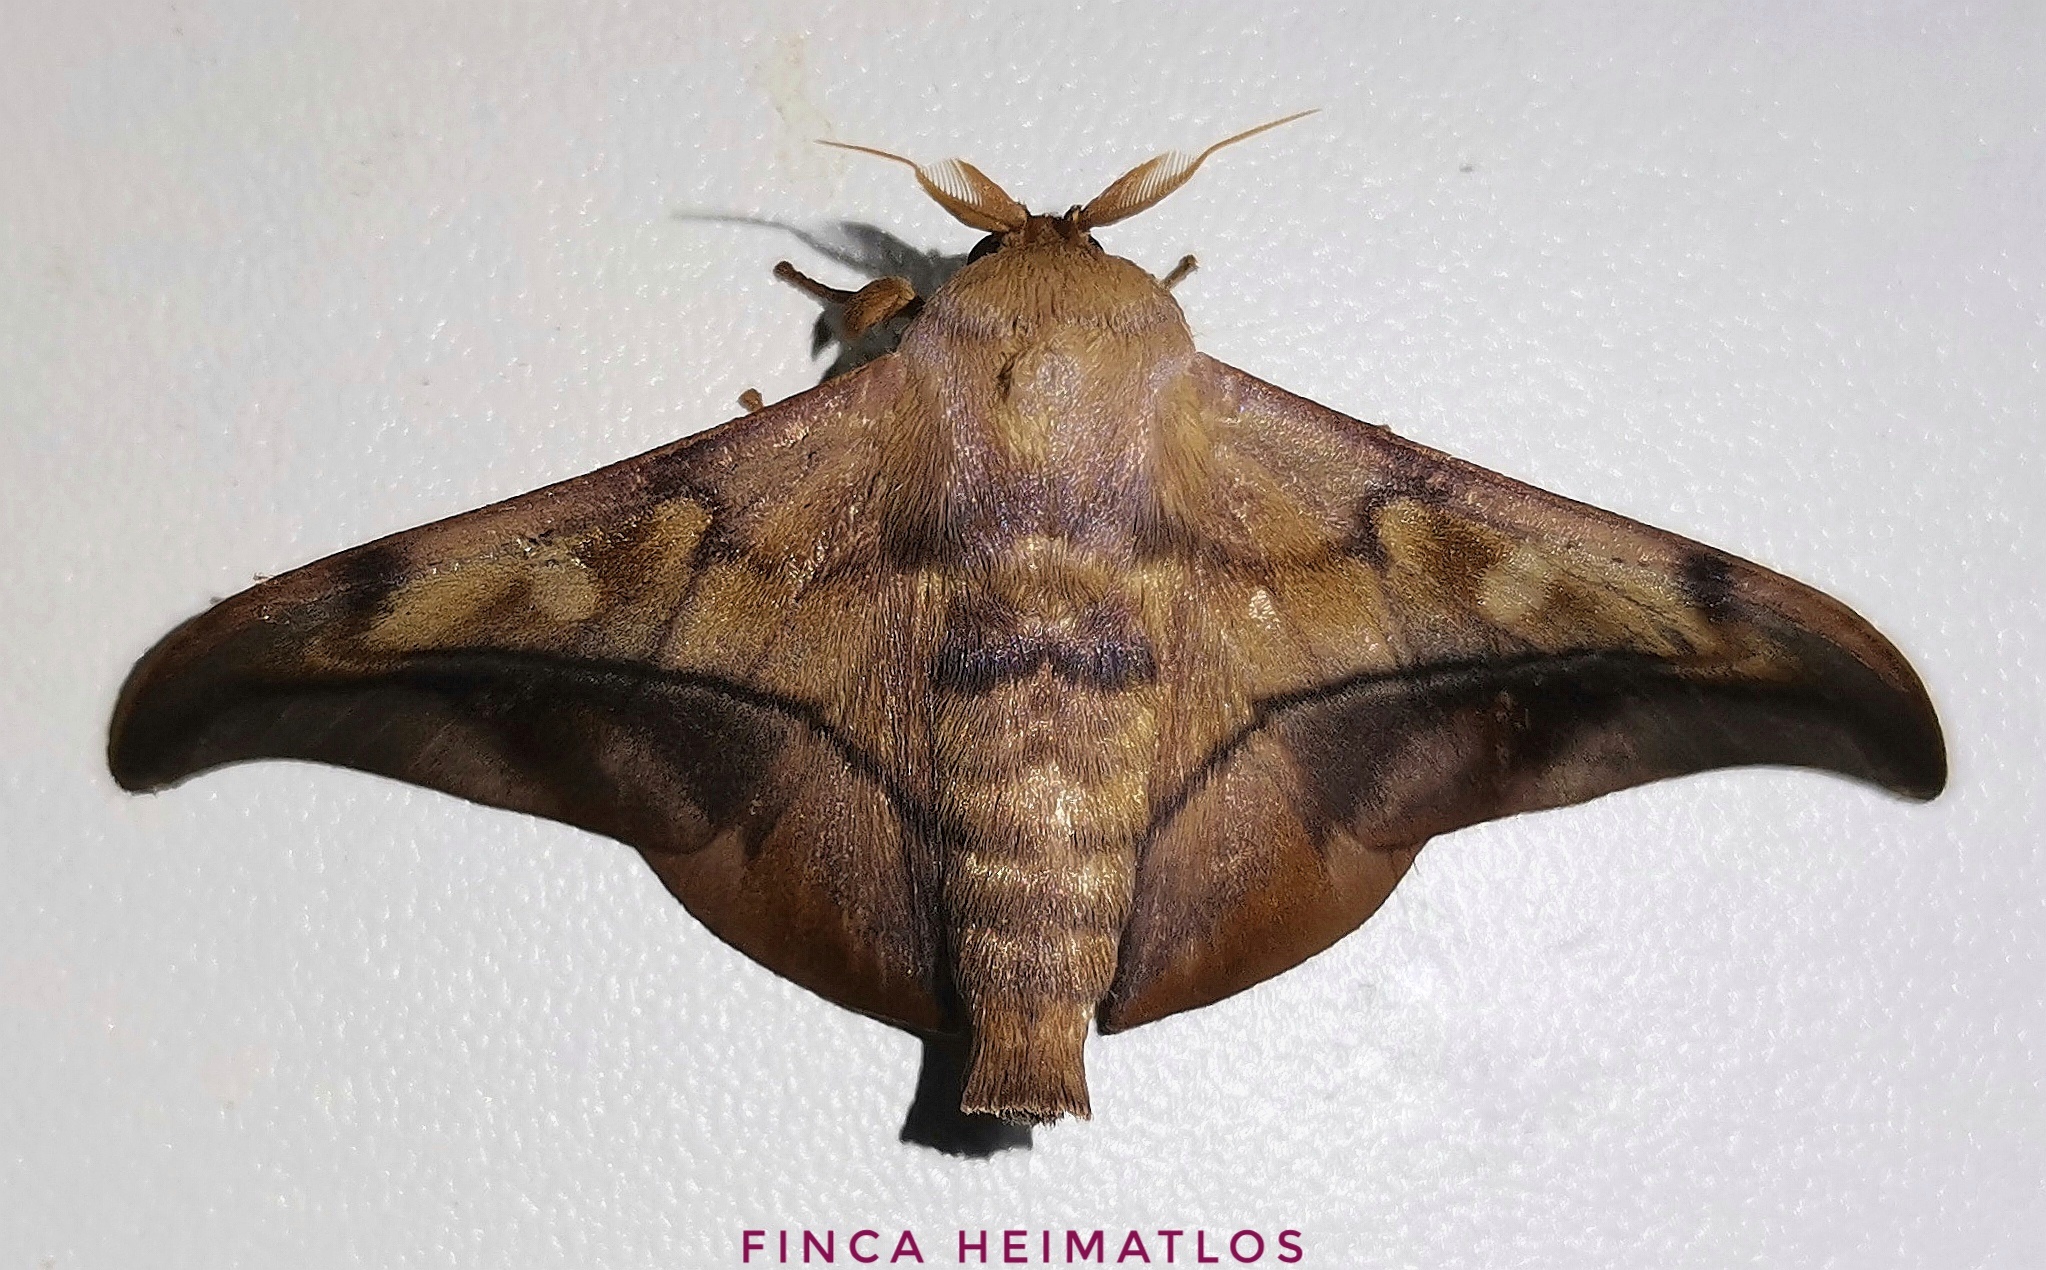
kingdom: Animalia
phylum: Arthropoda
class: Insecta
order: Lepidoptera
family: Mimallonidae
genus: Cicinnus
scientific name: Cicinnus anysia
